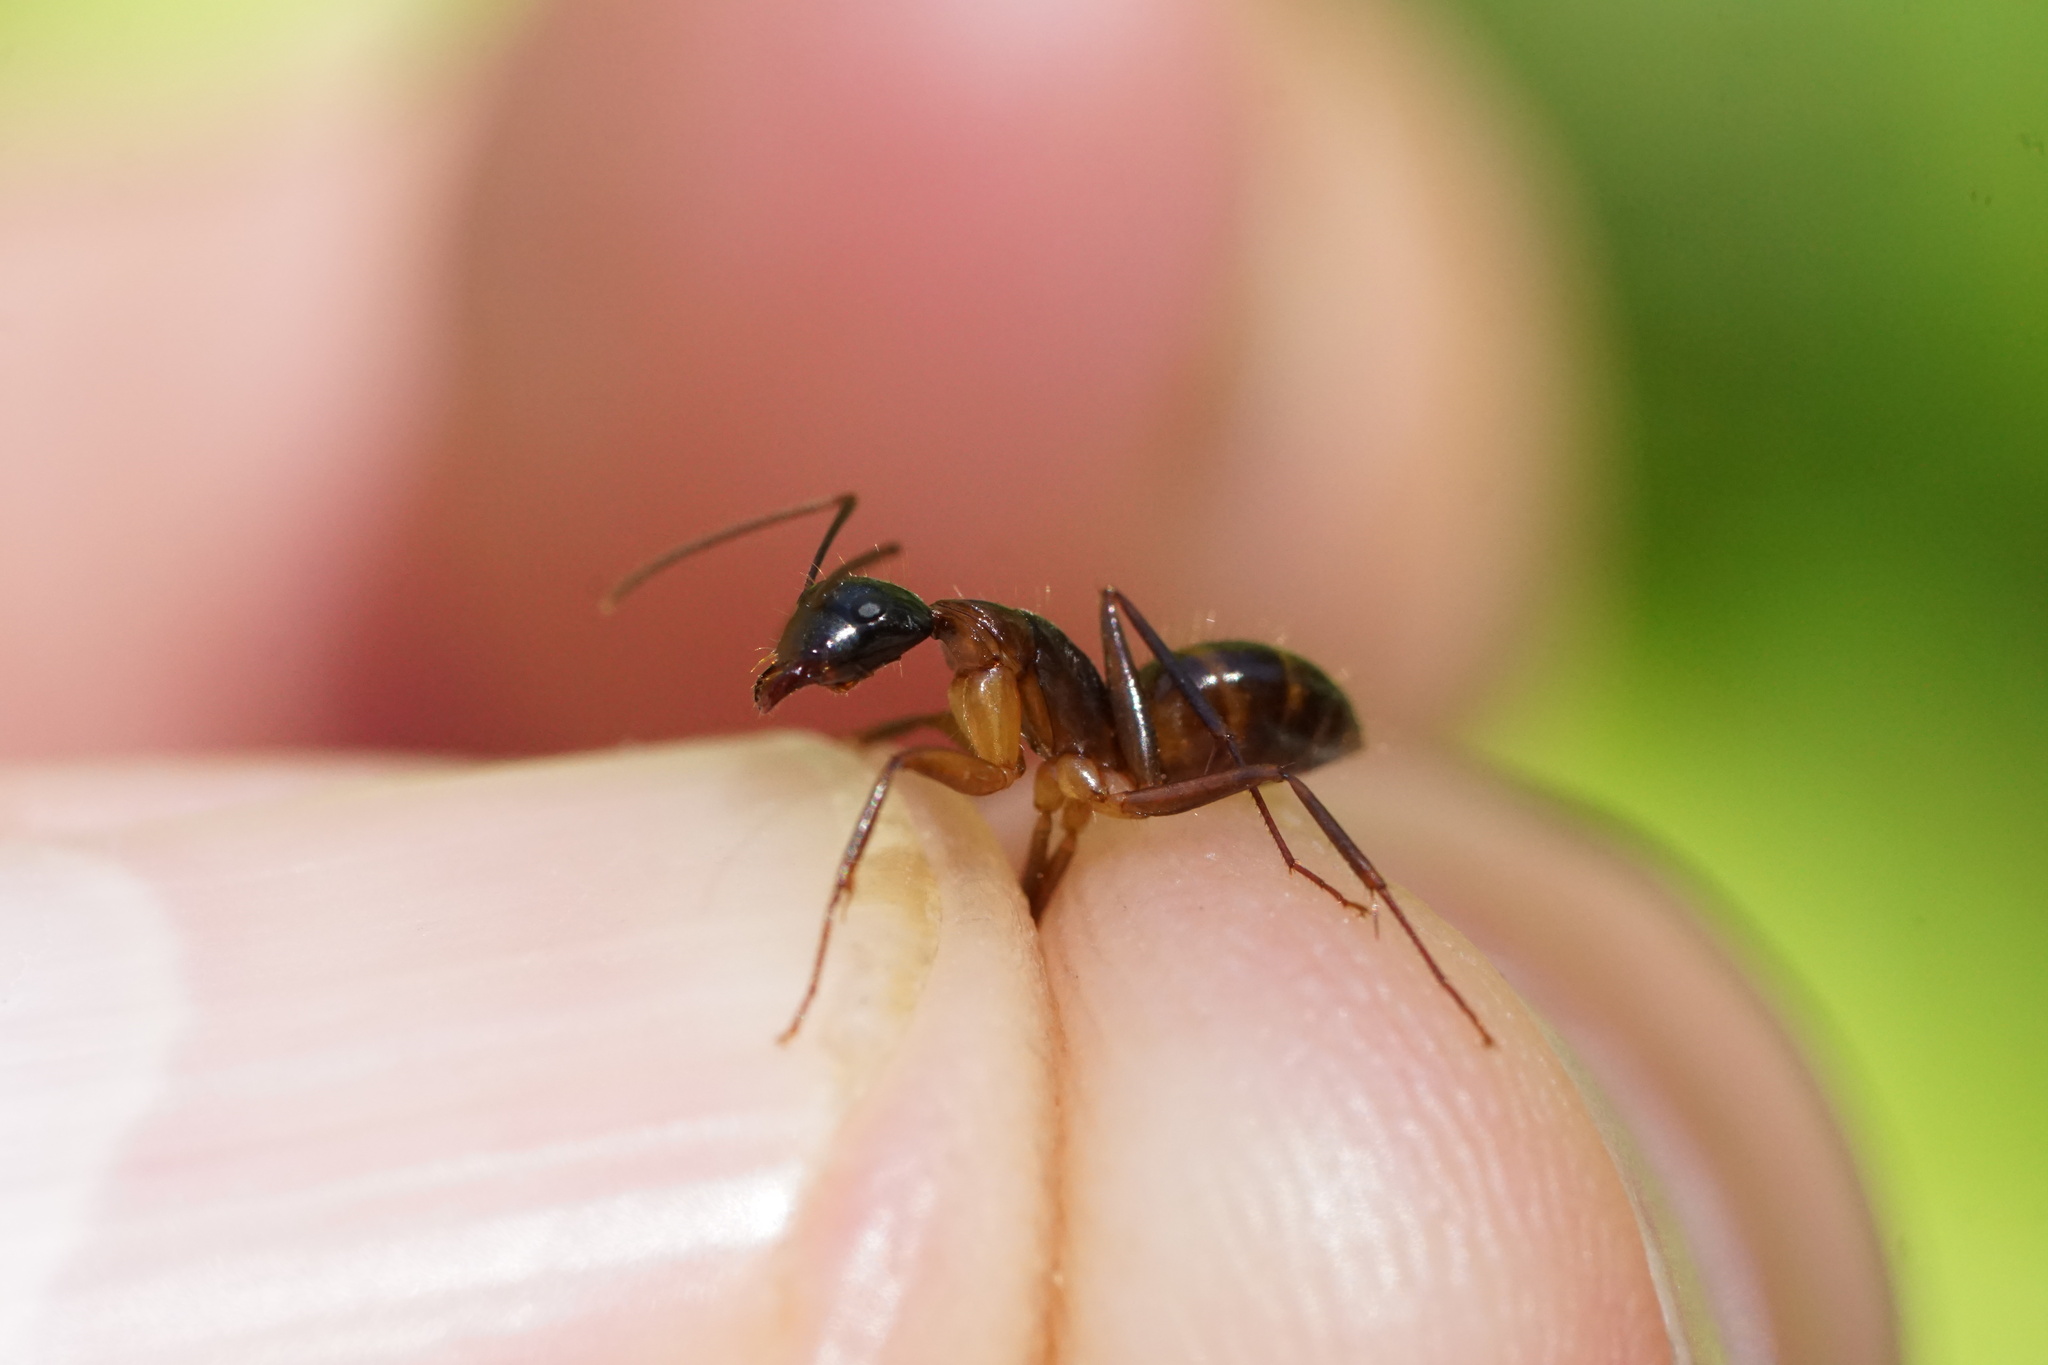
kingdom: Animalia
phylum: Arthropoda
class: Insecta
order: Hymenoptera
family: Formicidae
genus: Camponotus
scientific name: Camponotus americanus
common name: American carpenter ant
